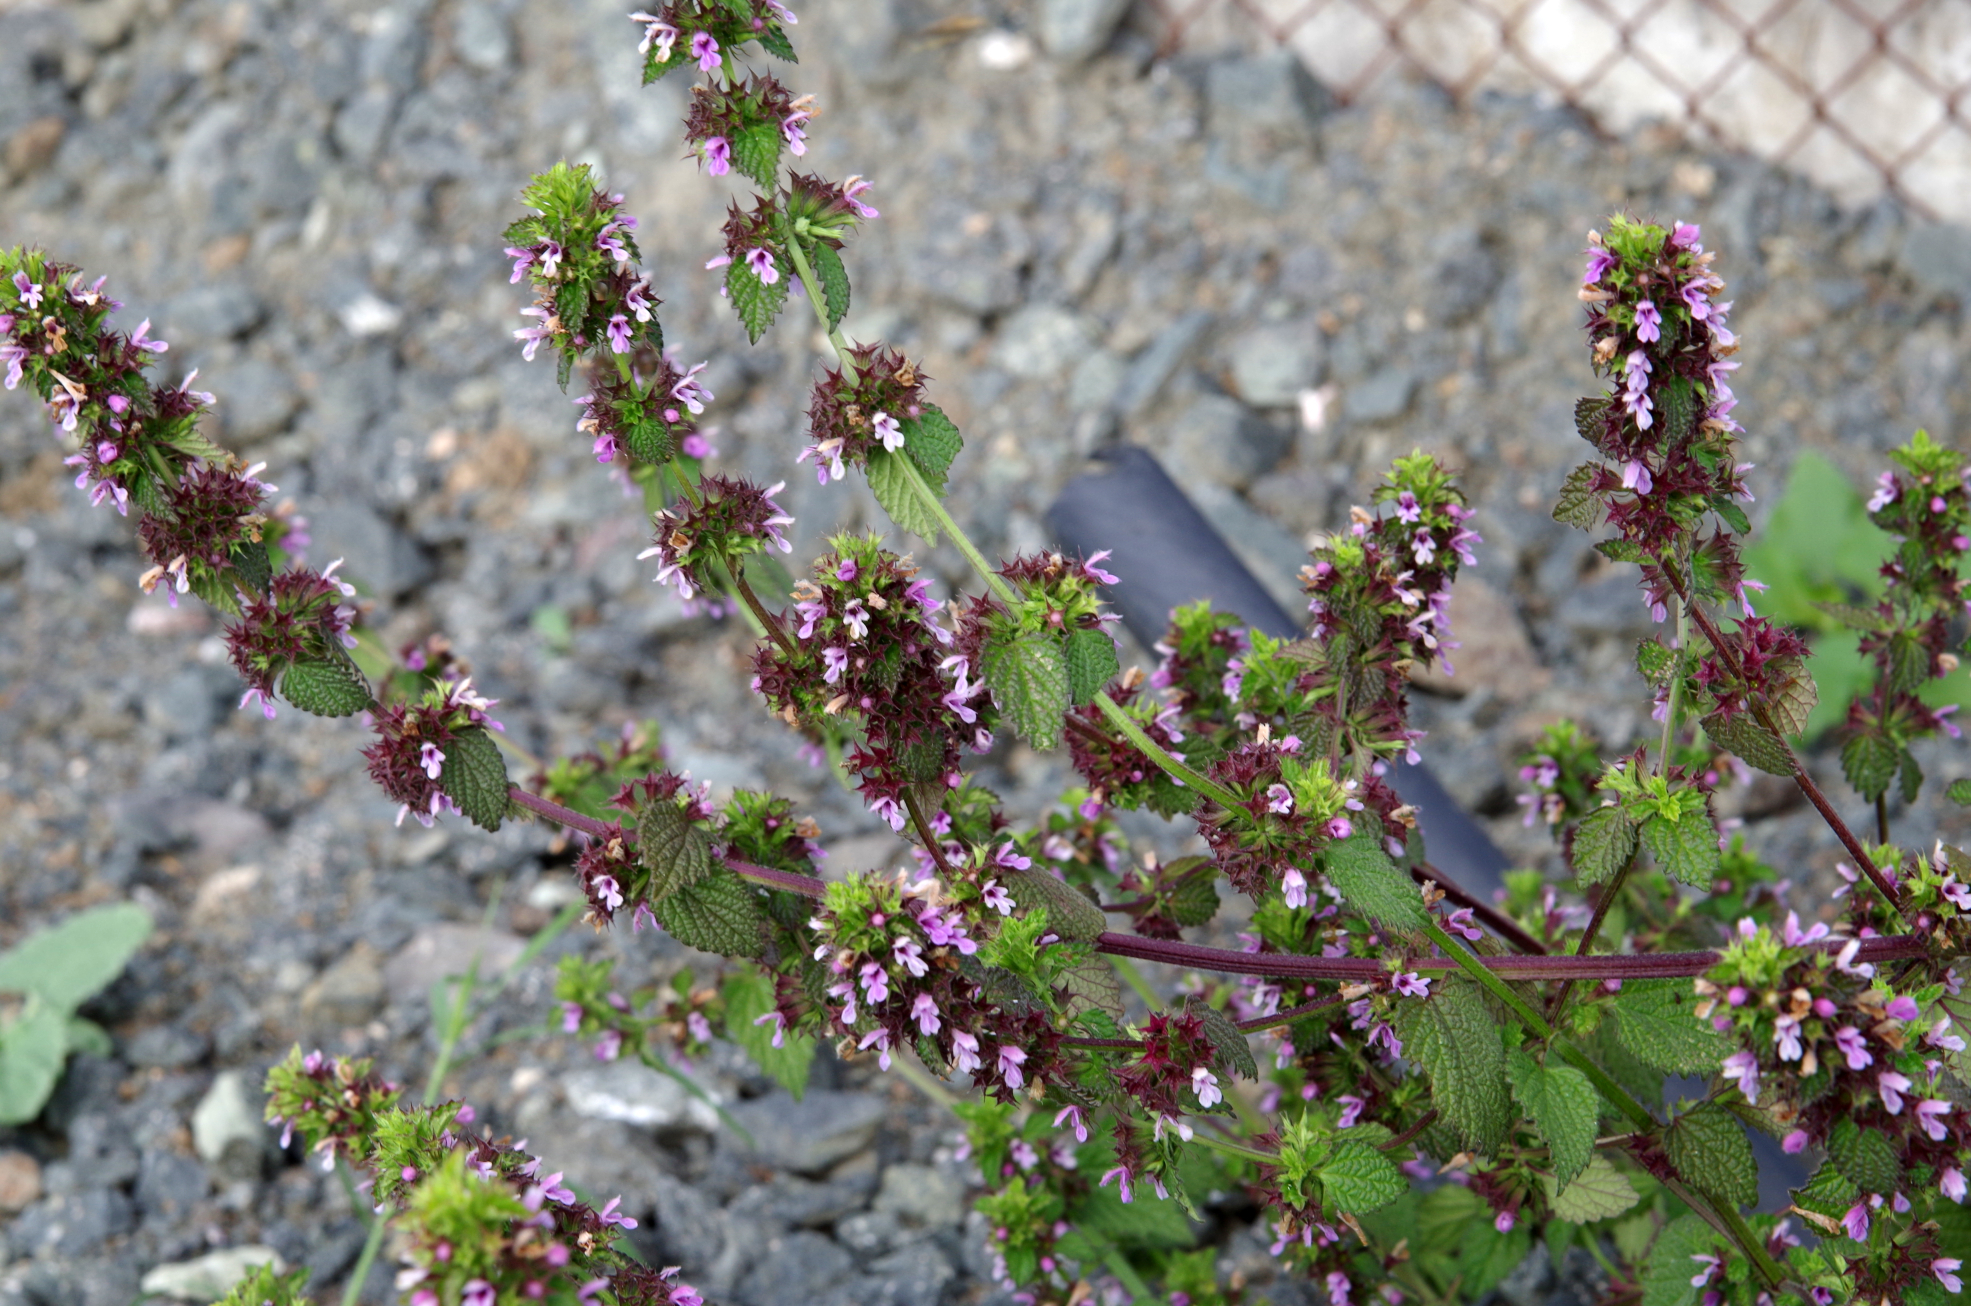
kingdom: Plantae
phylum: Tracheophyta
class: Magnoliopsida
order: Lamiales
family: Lamiaceae
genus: Ballota
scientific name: Ballota nigra
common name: Black horehound
